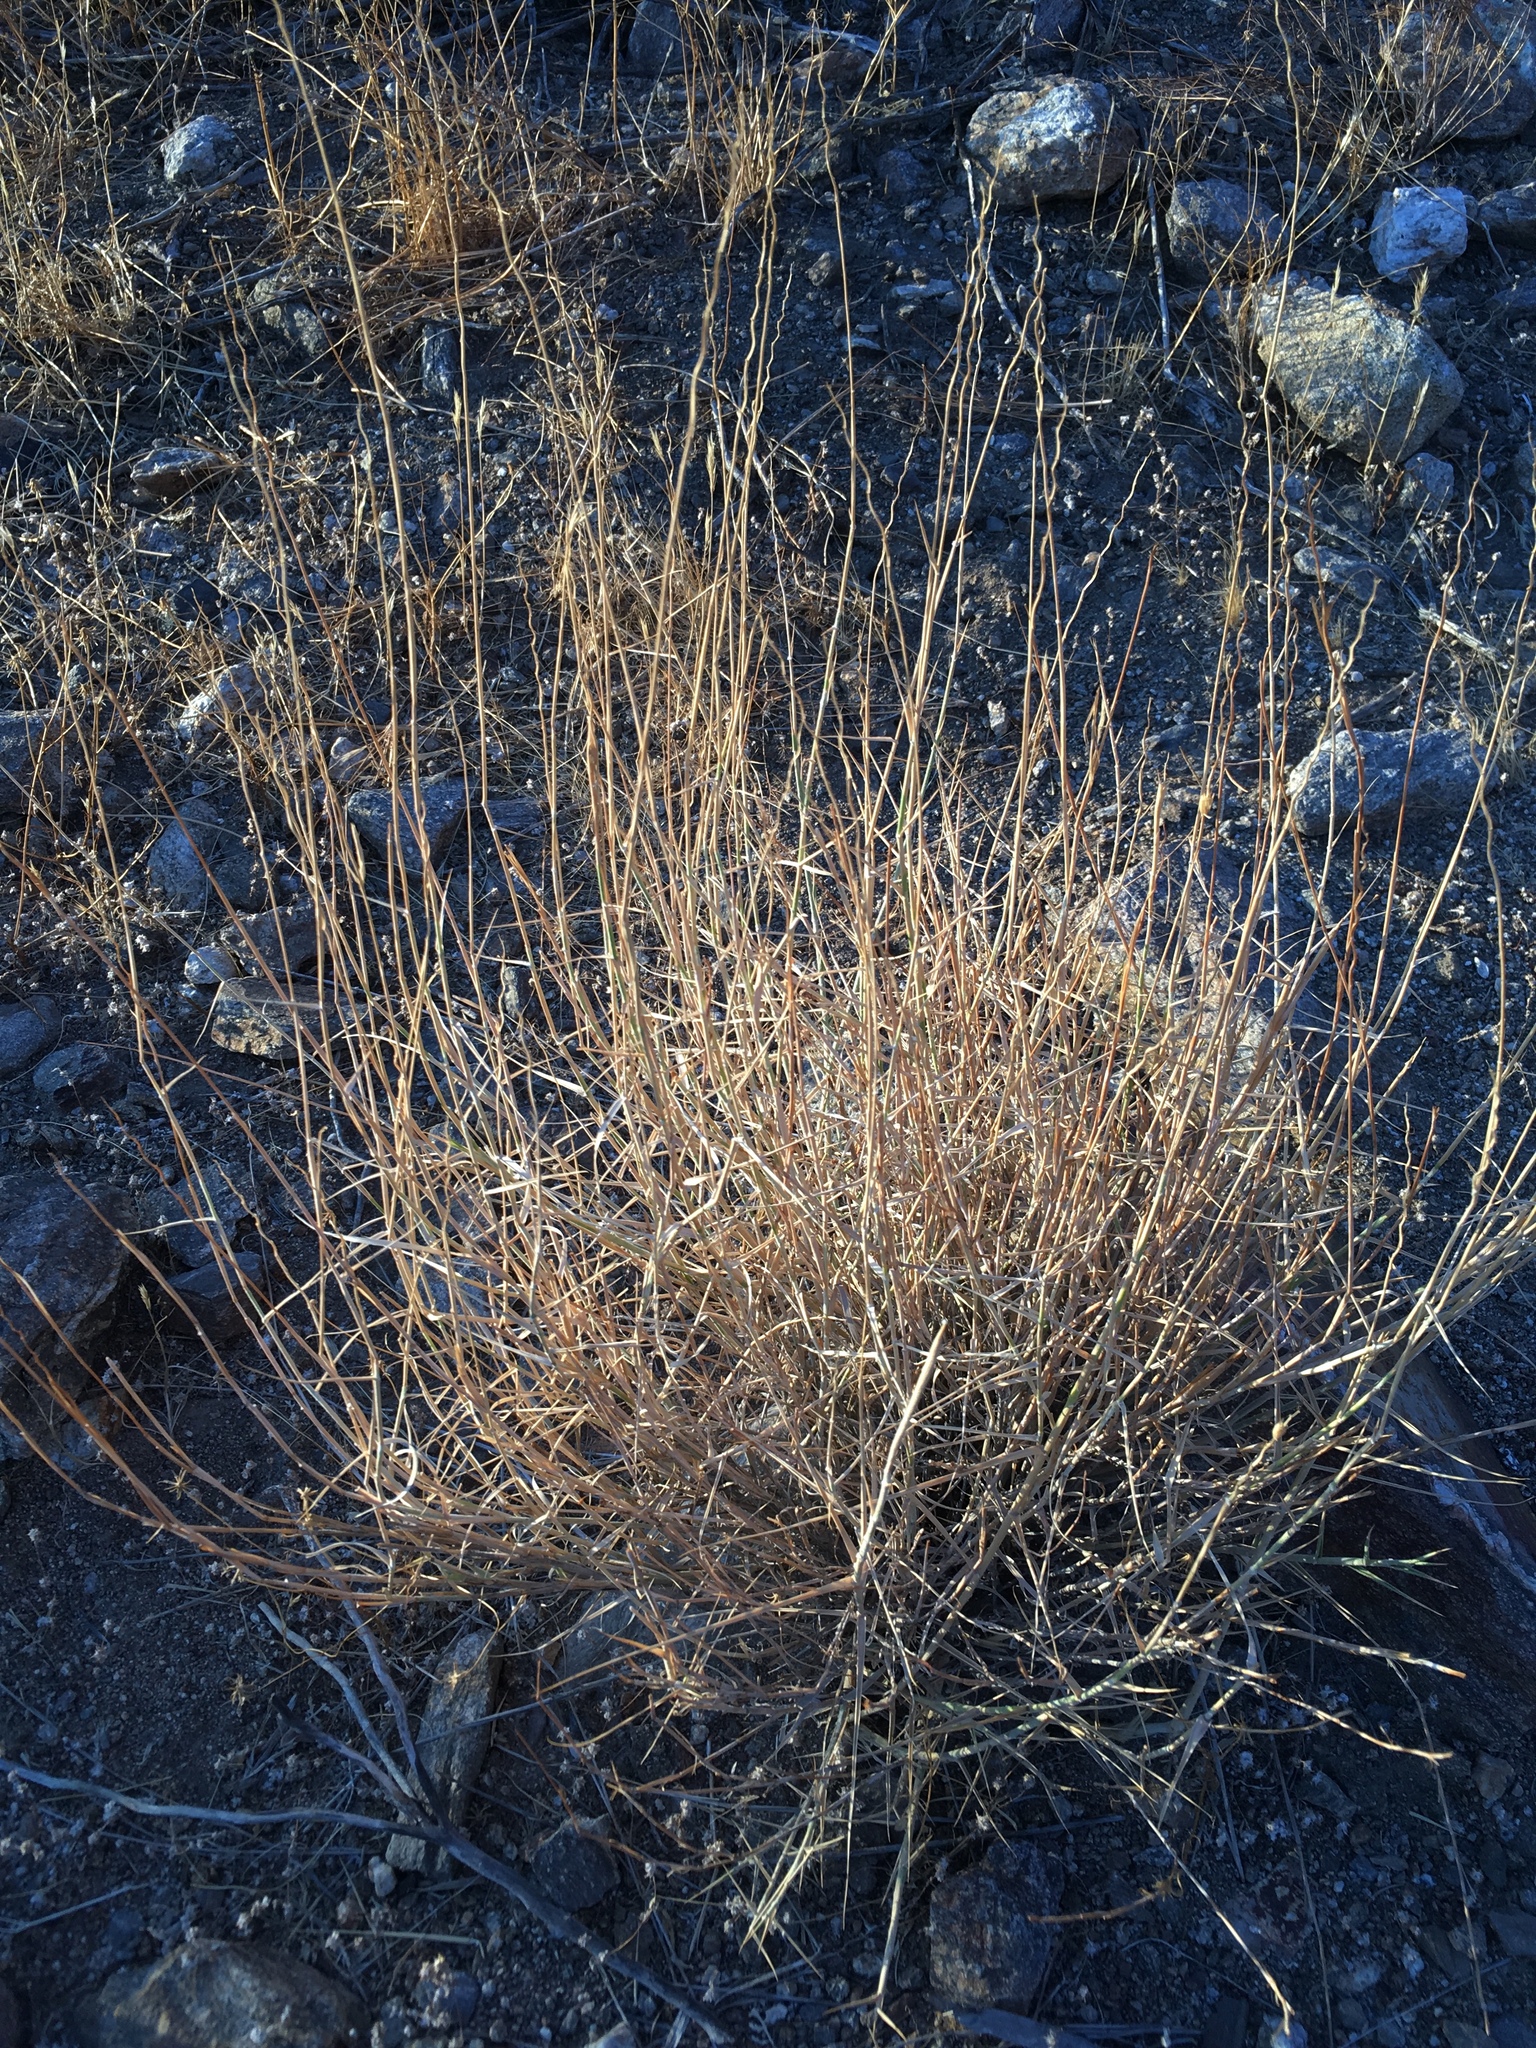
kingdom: Plantae
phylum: Tracheophyta
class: Liliopsida
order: Poales
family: Poaceae
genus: Hilaria
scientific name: Hilaria rigida
